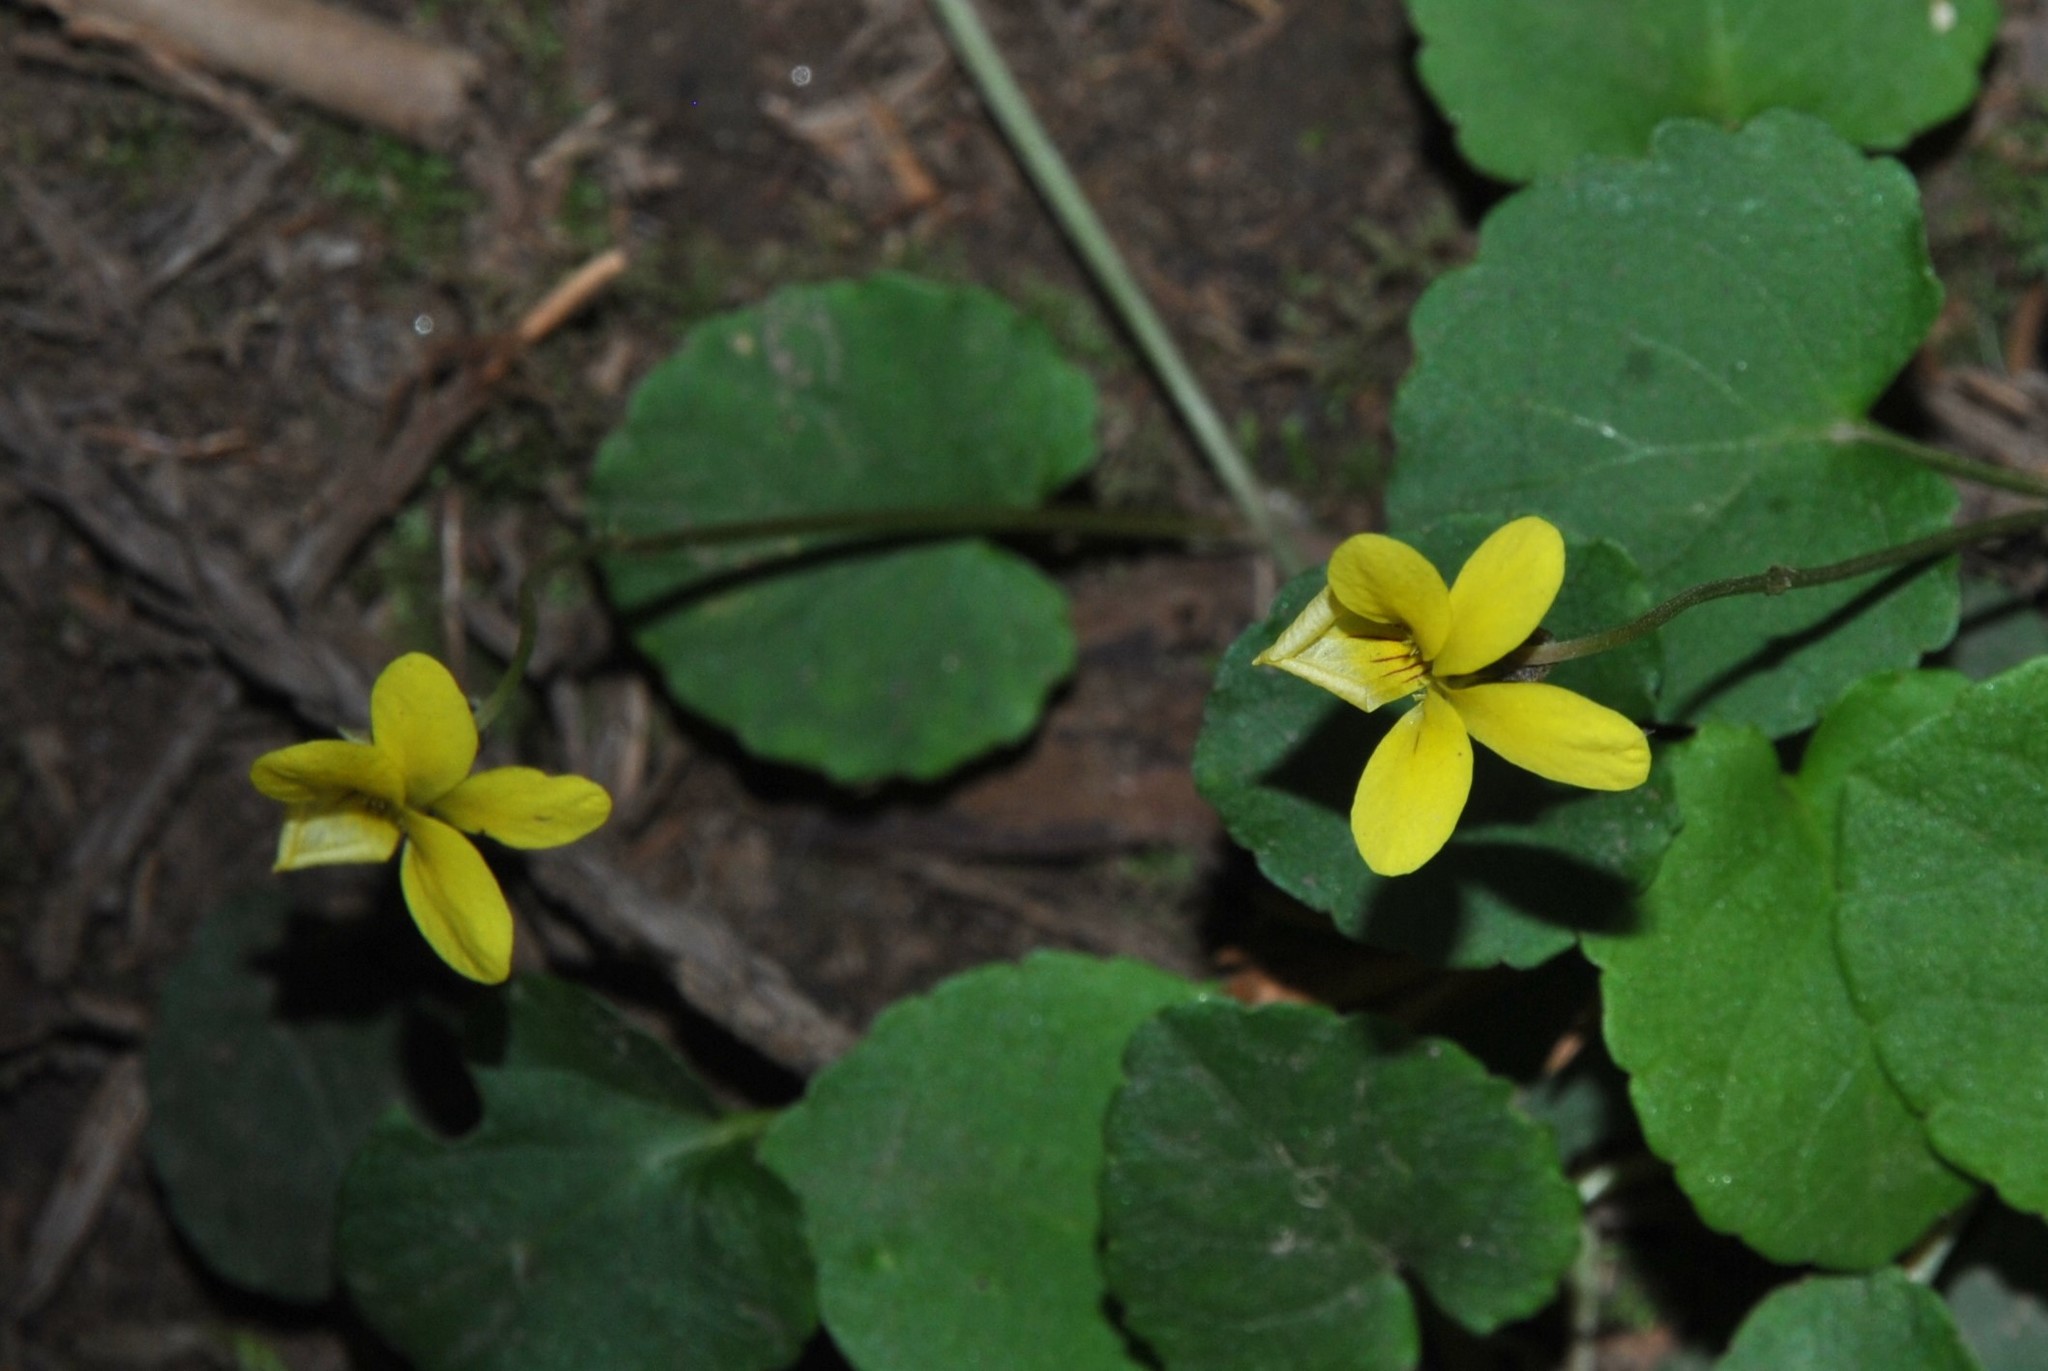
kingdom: Plantae
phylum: Tracheophyta
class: Magnoliopsida
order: Malpighiales
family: Violaceae
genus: Viola
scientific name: Viola sempervirens
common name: Evergreen violet
